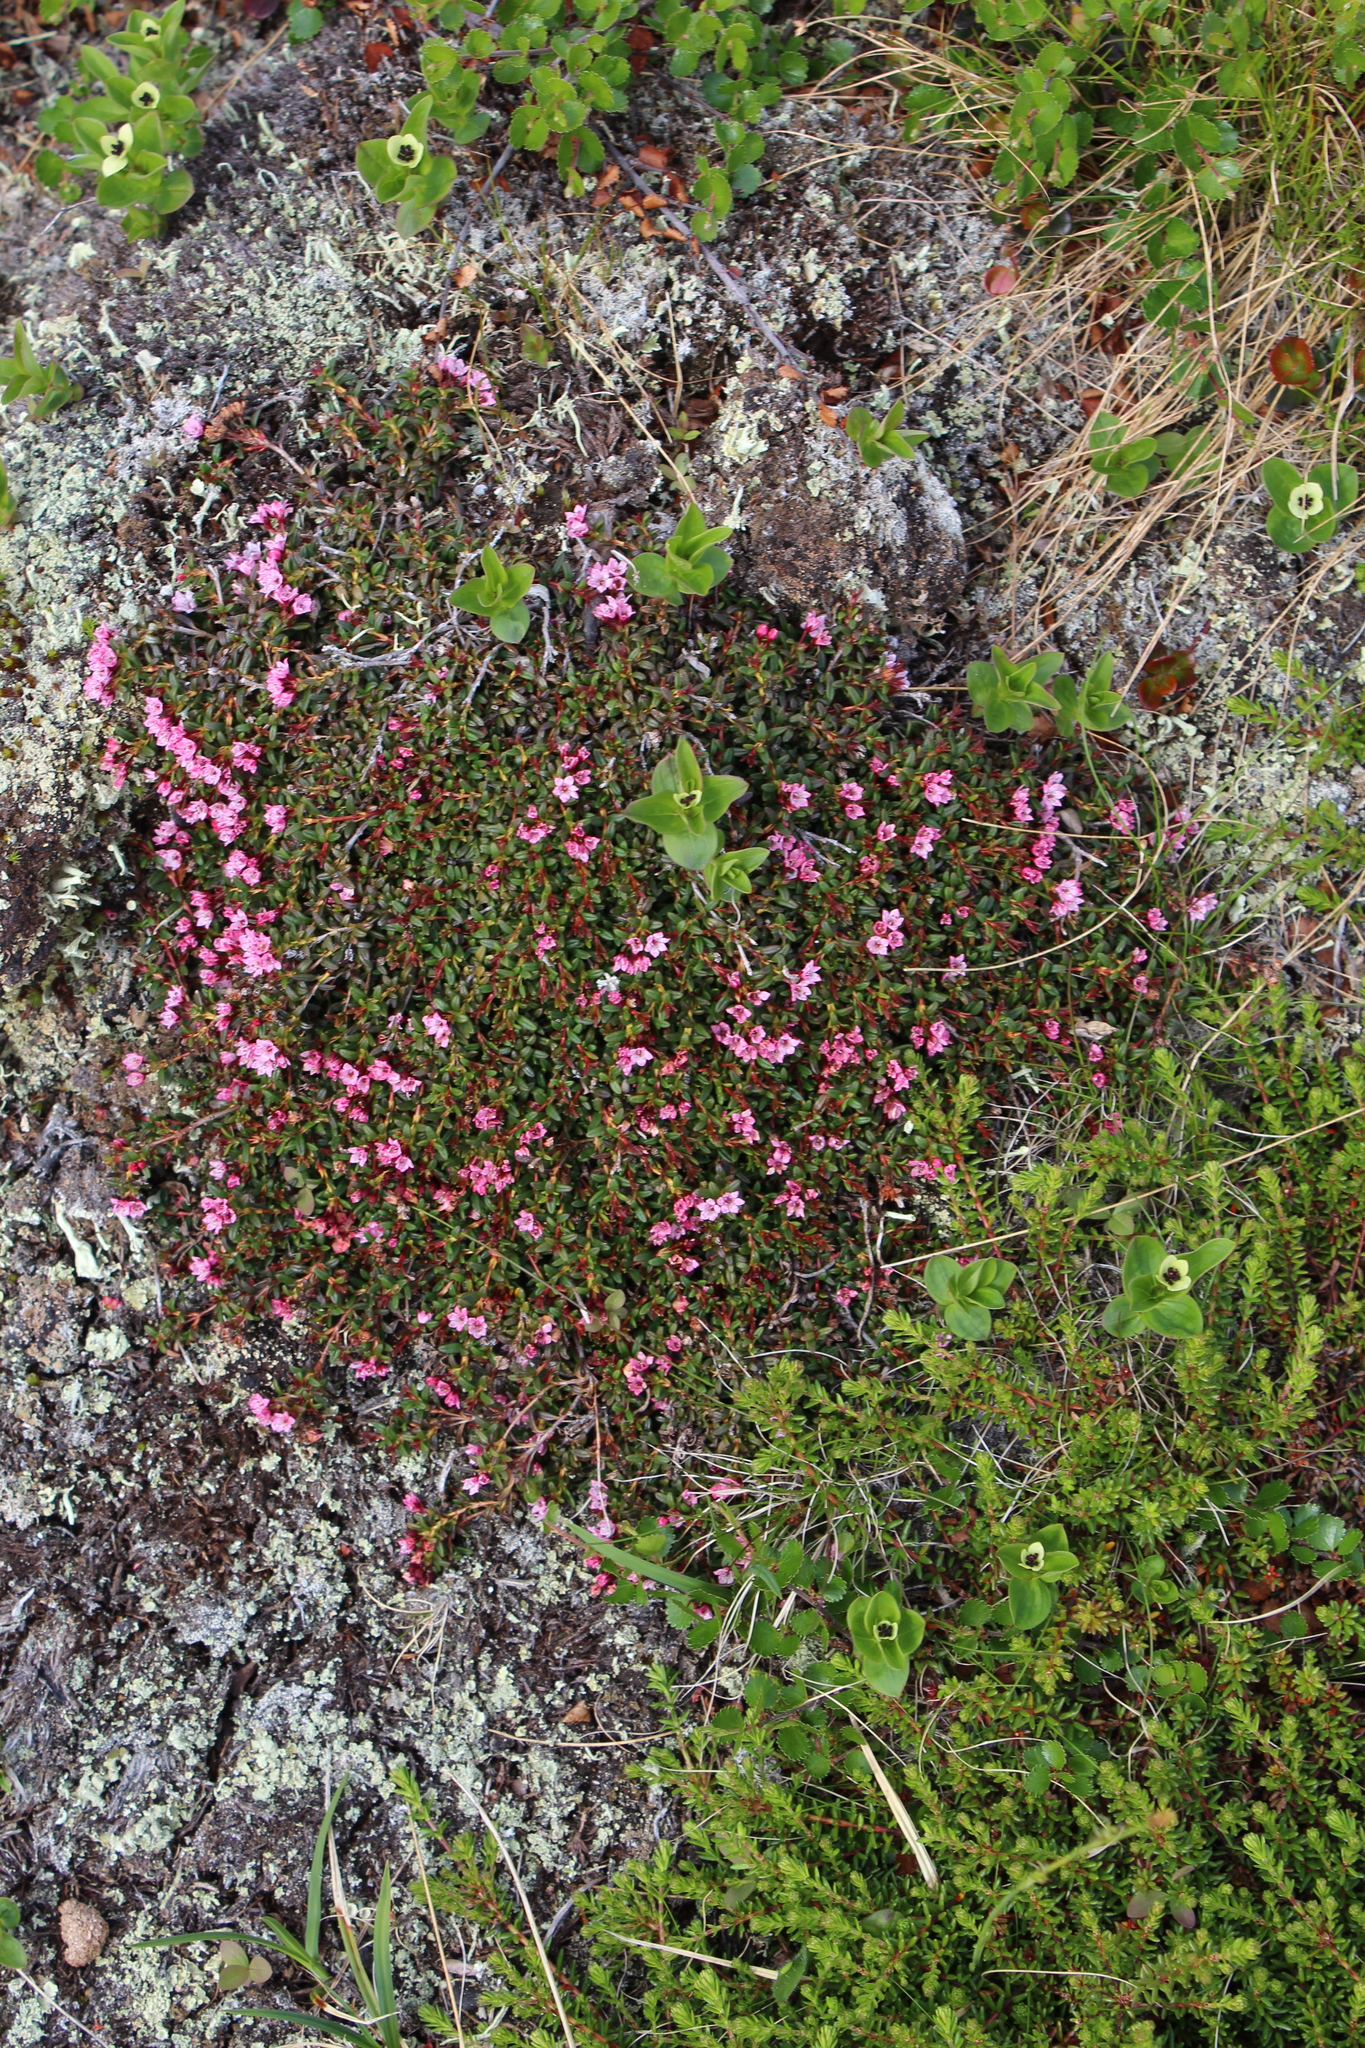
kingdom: Plantae
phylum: Tracheophyta
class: Magnoliopsida
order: Ericales
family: Ericaceae
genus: Kalmia
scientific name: Kalmia procumbens
